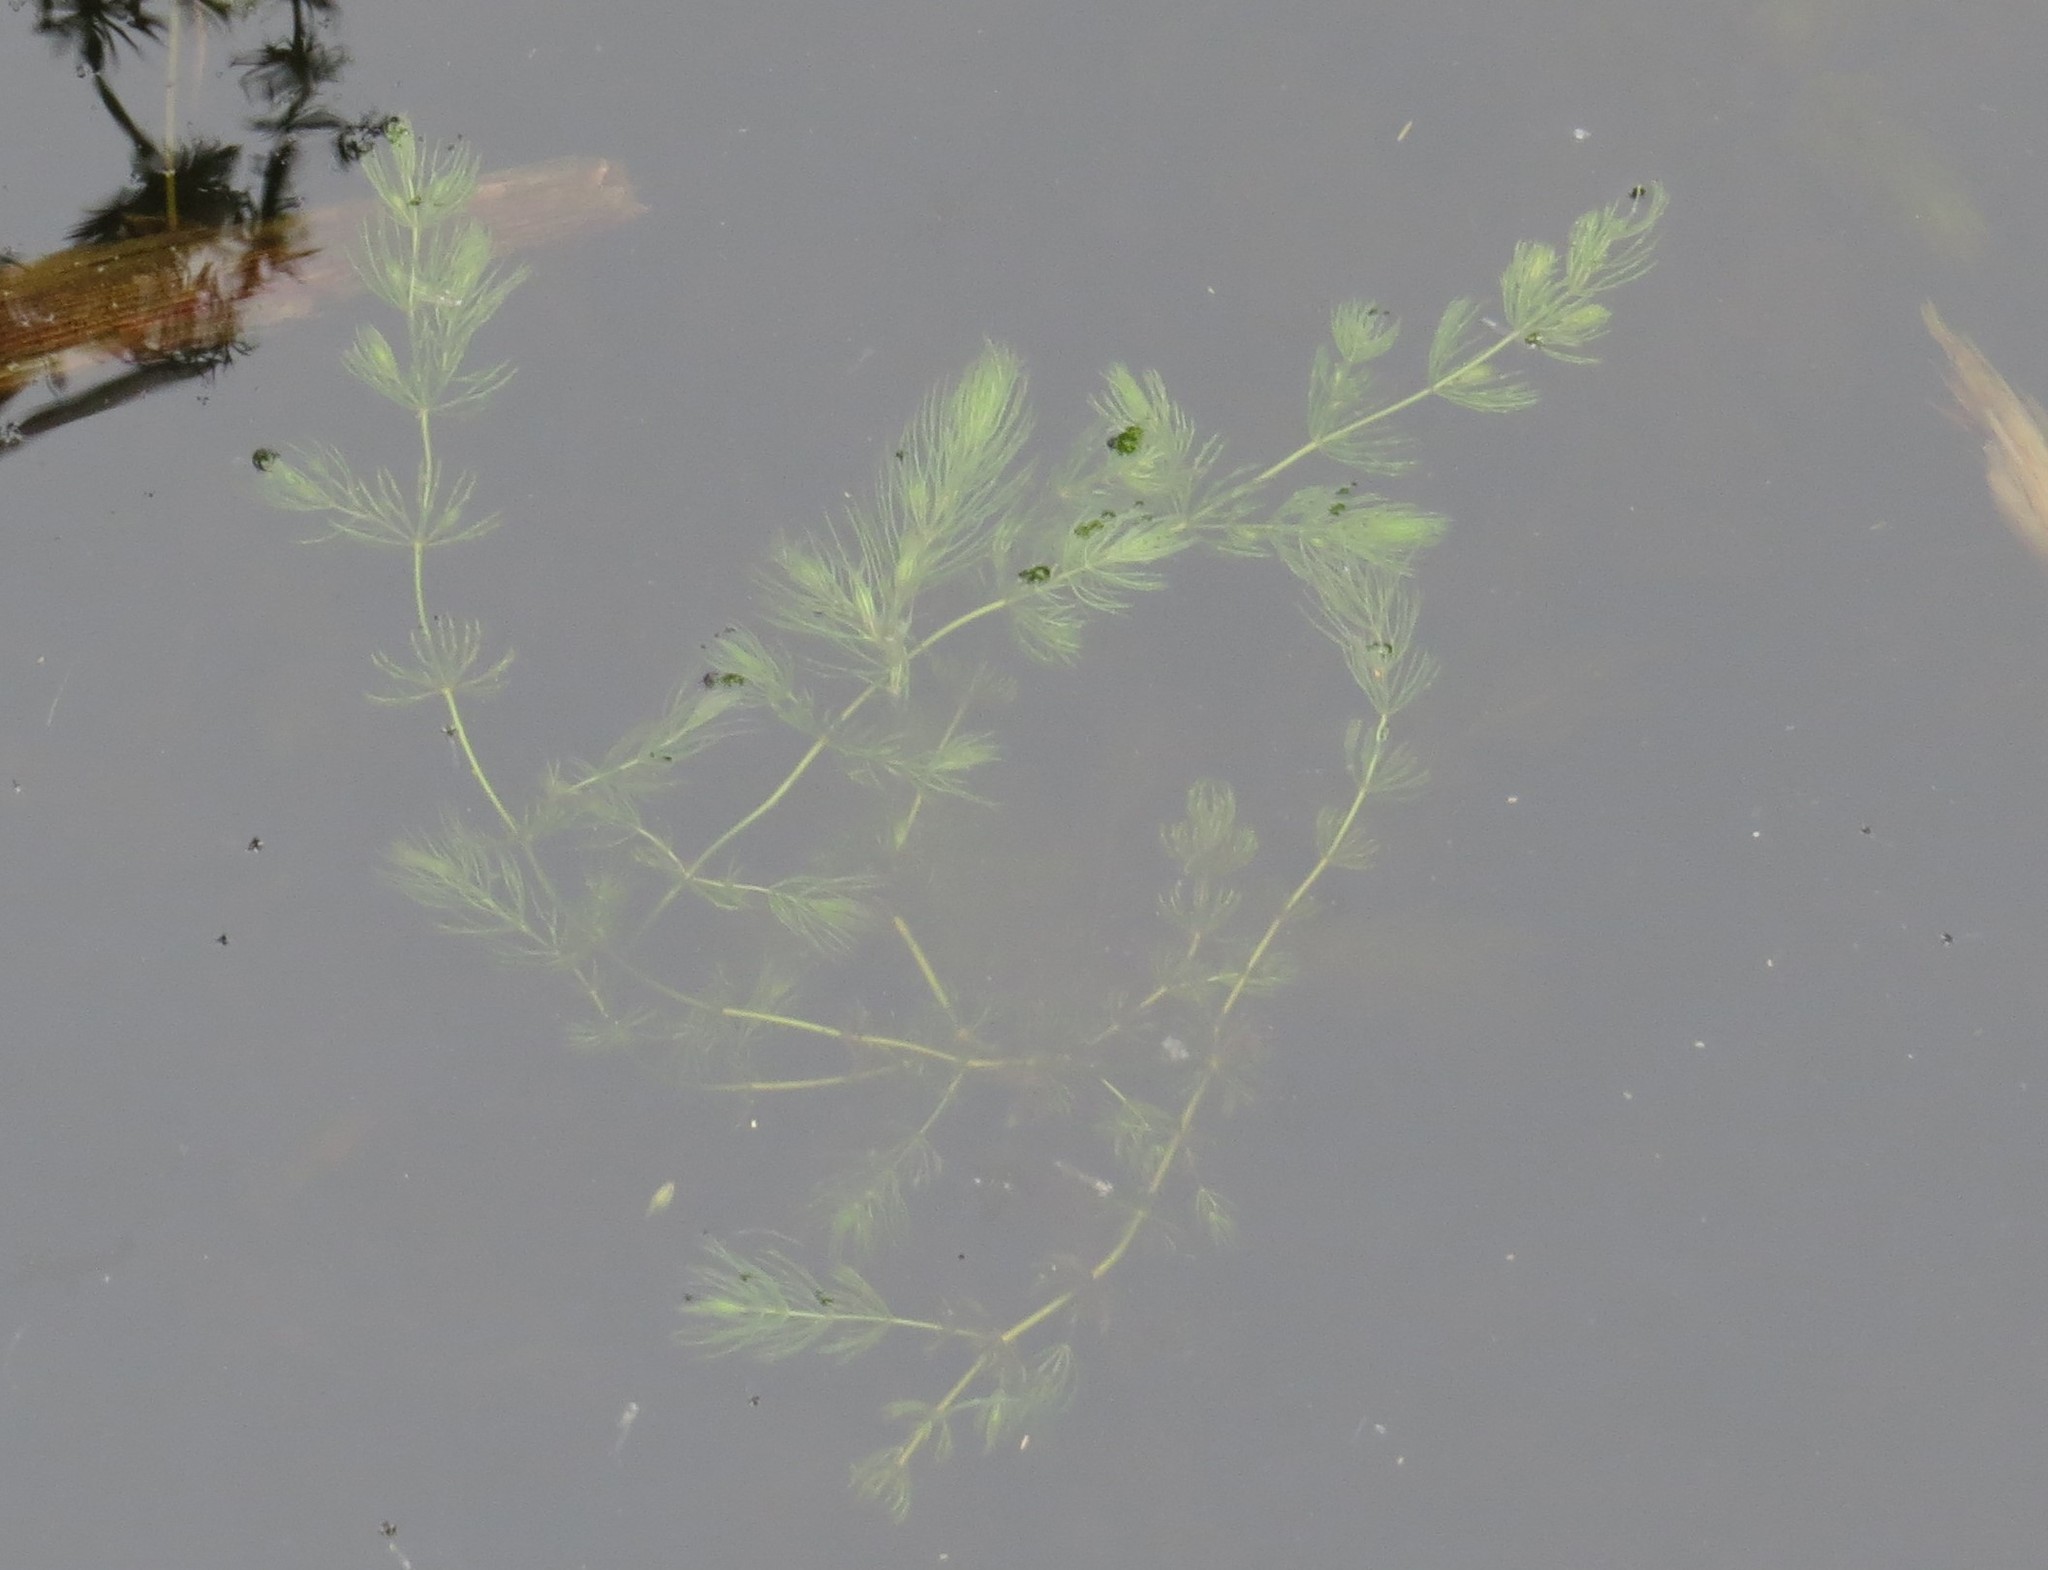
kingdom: Plantae
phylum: Tracheophyta
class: Magnoliopsida
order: Ceratophyllales
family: Ceratophyllaceae
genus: Ceratophyllum
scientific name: Ceratophyllum demersum
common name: Rigid hornwort
